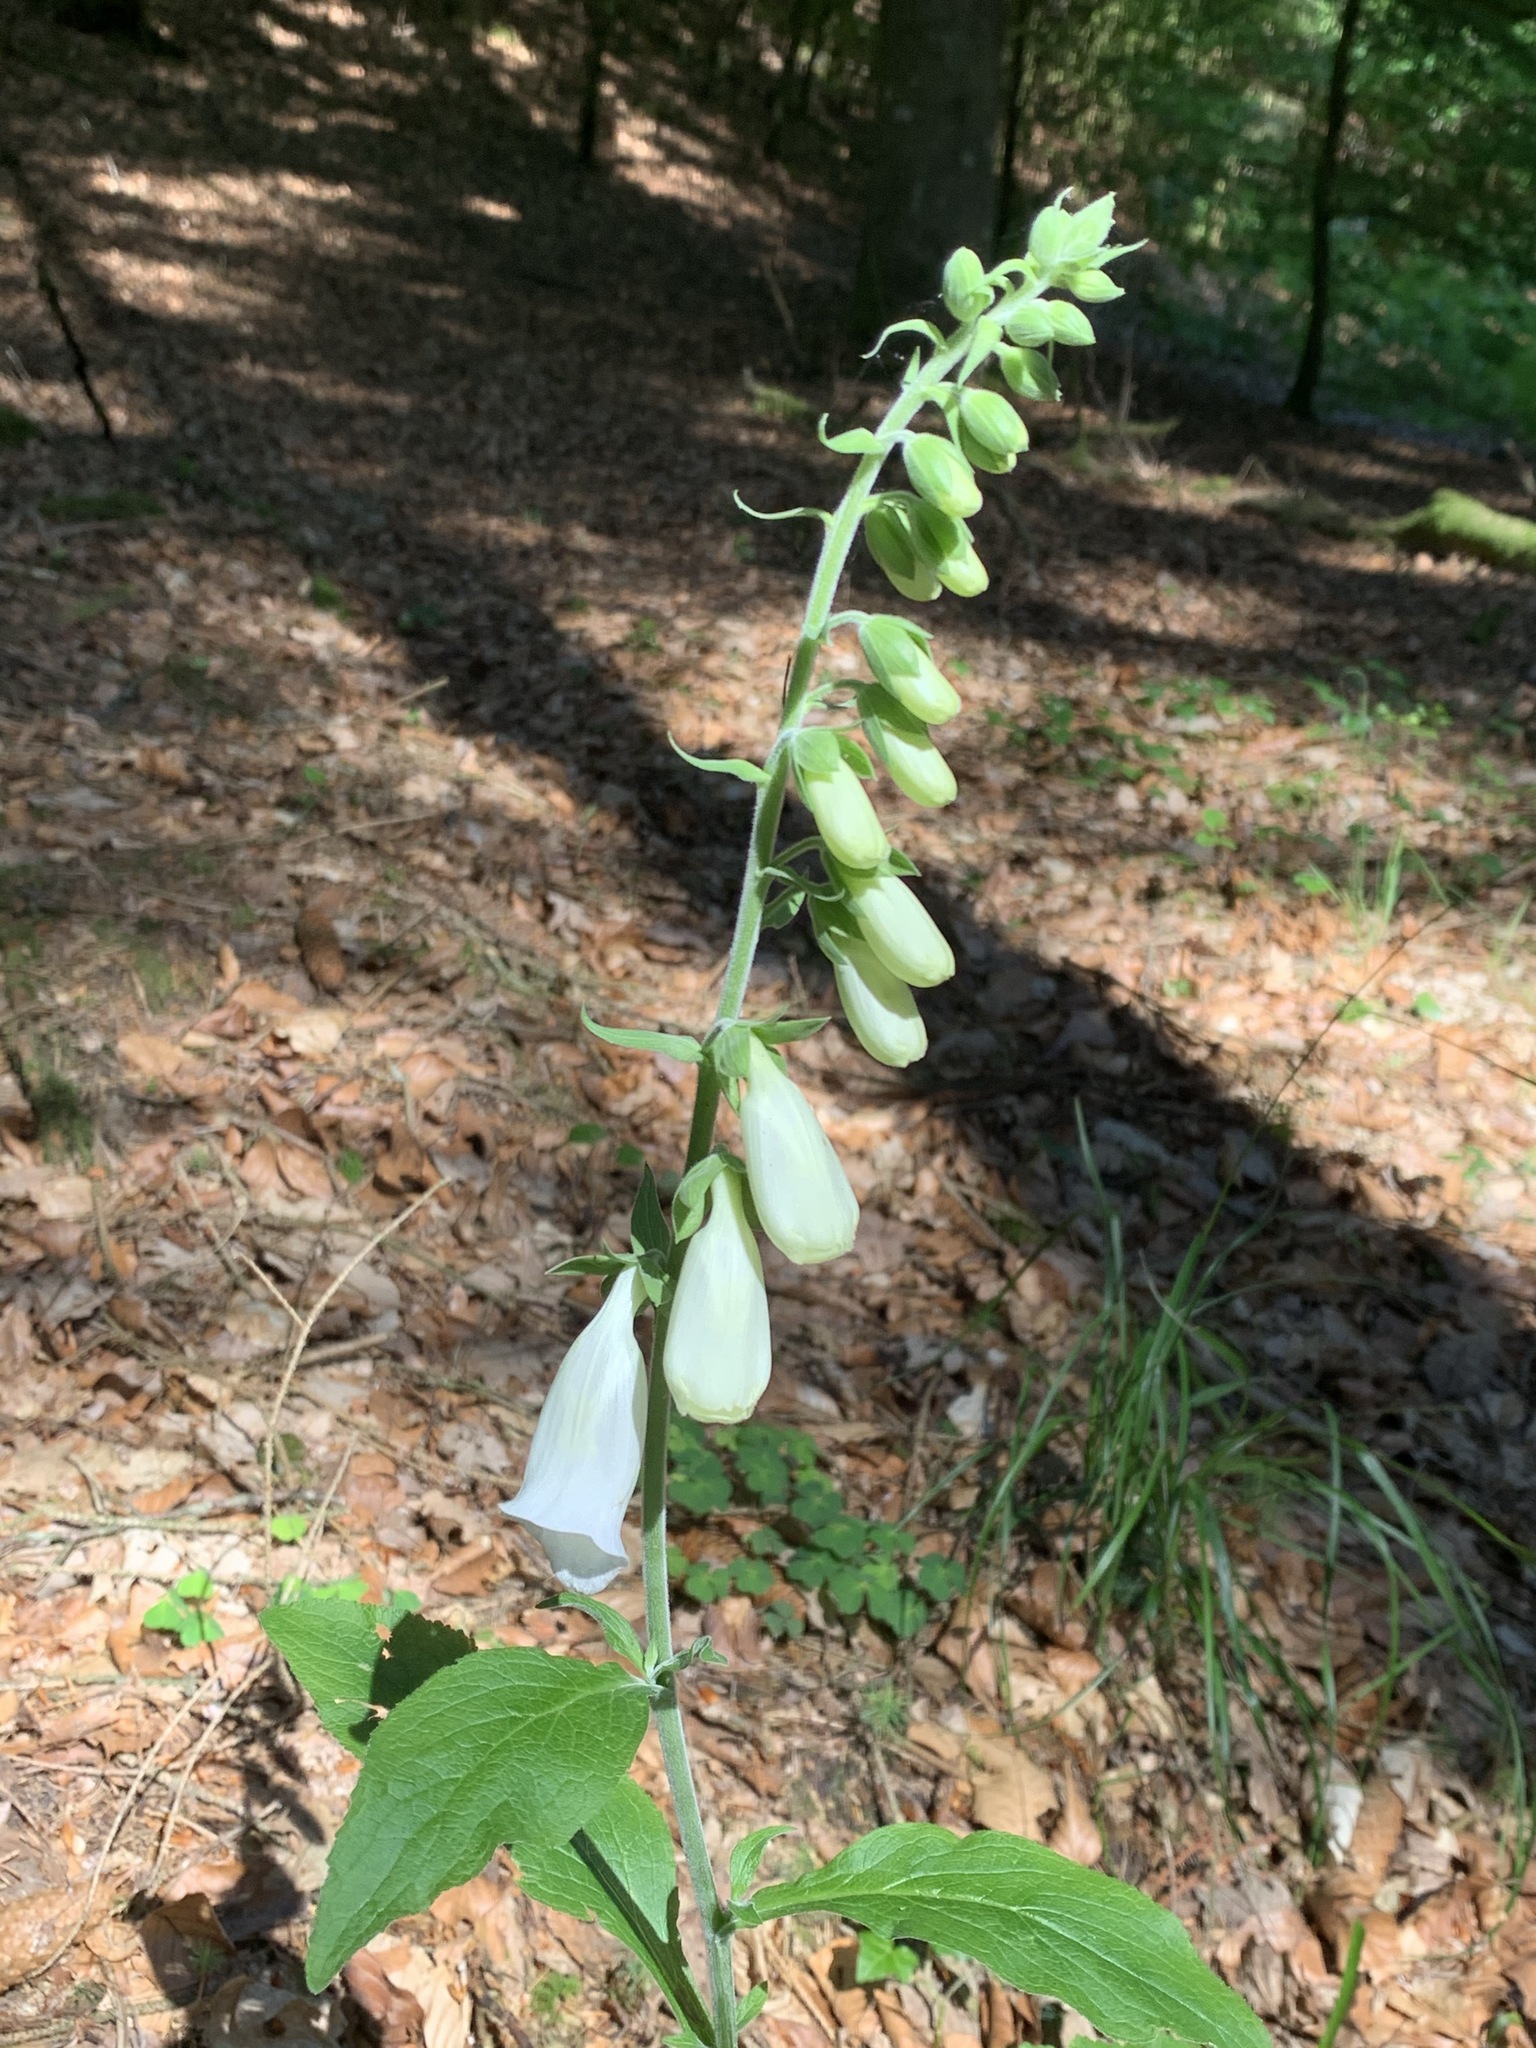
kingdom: Plantae
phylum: Tracheophyta
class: Magnoliopsida
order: Lamiales
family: Plantaginaceae
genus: Digitalis
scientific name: Digitalis purpurea
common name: Foxglove
